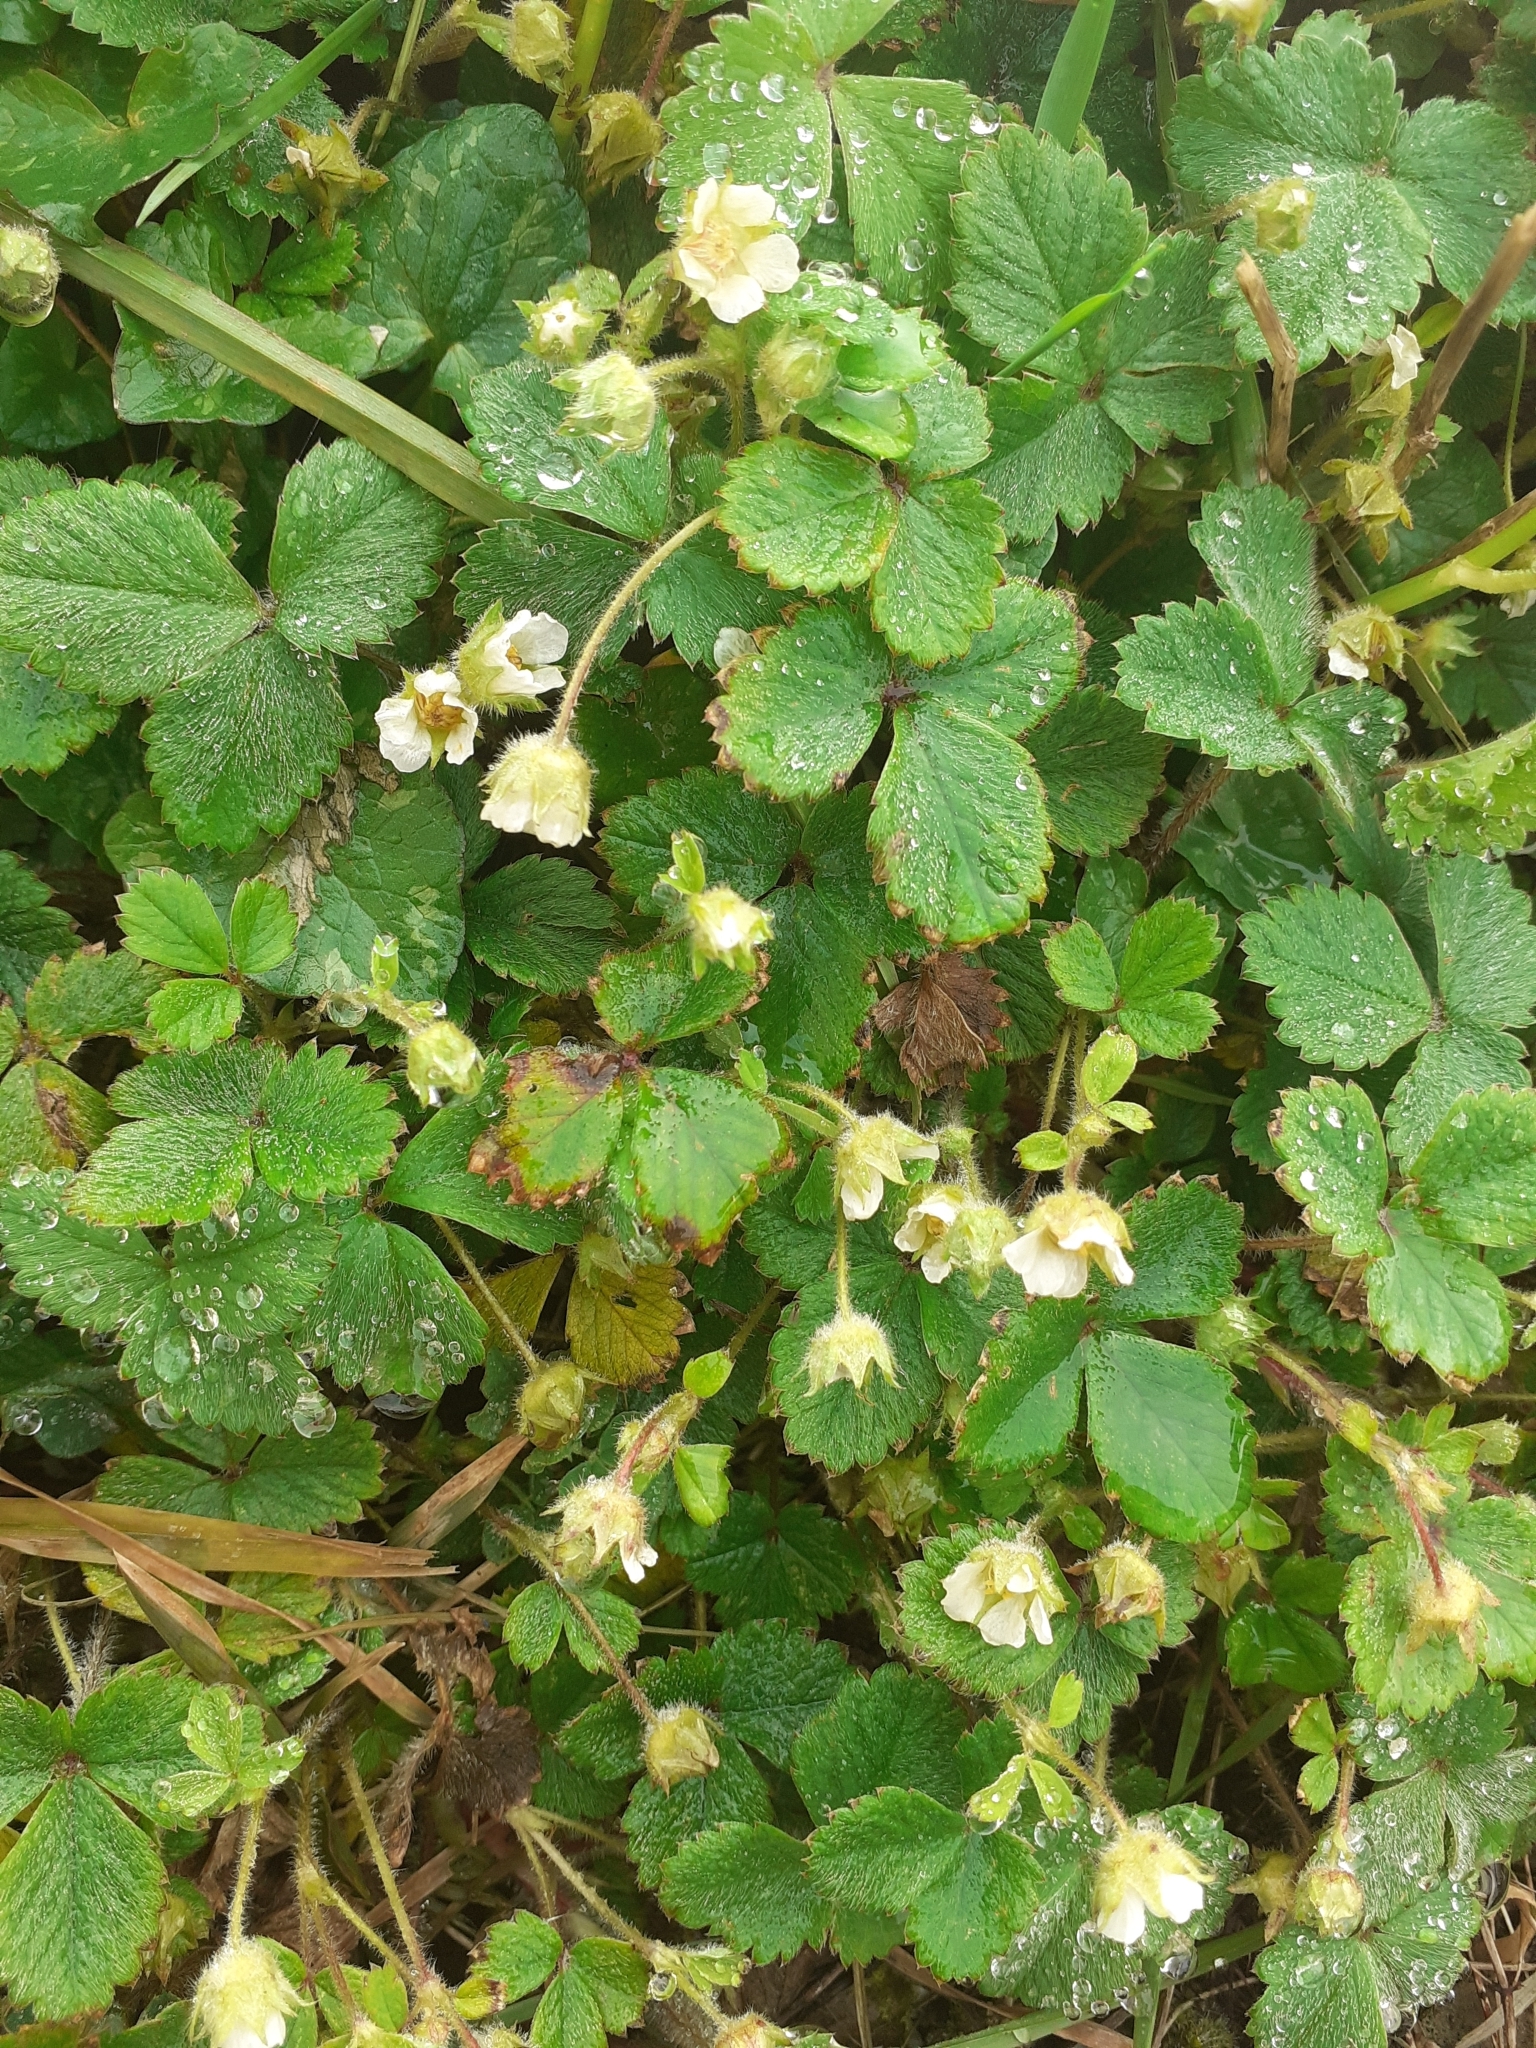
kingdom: Plantae
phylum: Tracheophyta
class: Magnoliopsida
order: Rosales
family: Rosaceae
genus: Potentilla
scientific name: Potentilla sterilis
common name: Barren strawberry
